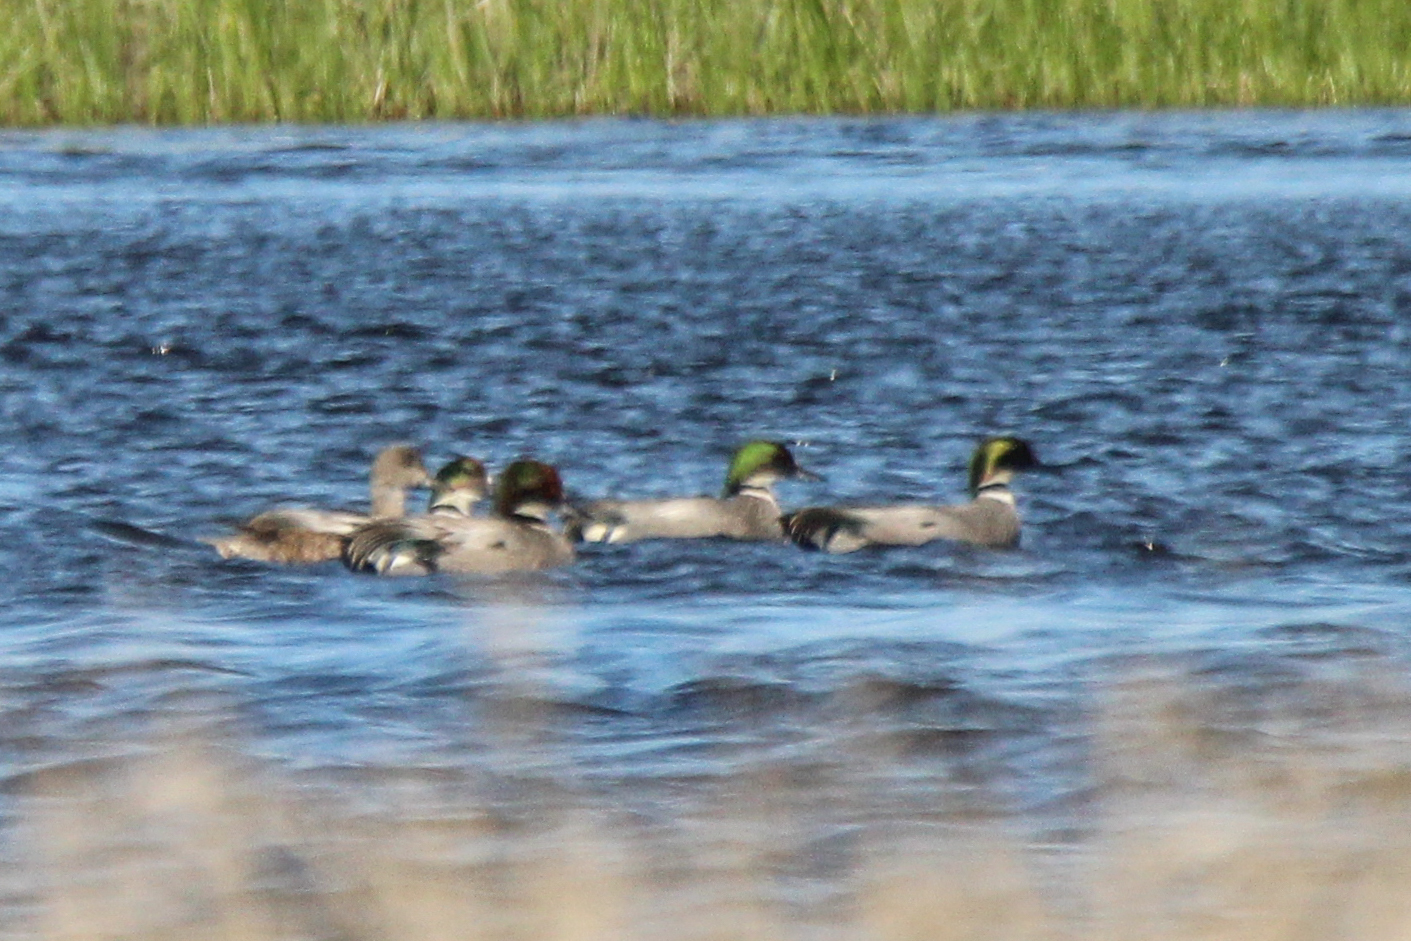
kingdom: Animalia
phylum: Chordata
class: Aves
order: Anseriformes
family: Anatidae
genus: Mareca
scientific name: Mareca falcata
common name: Falcated duck
